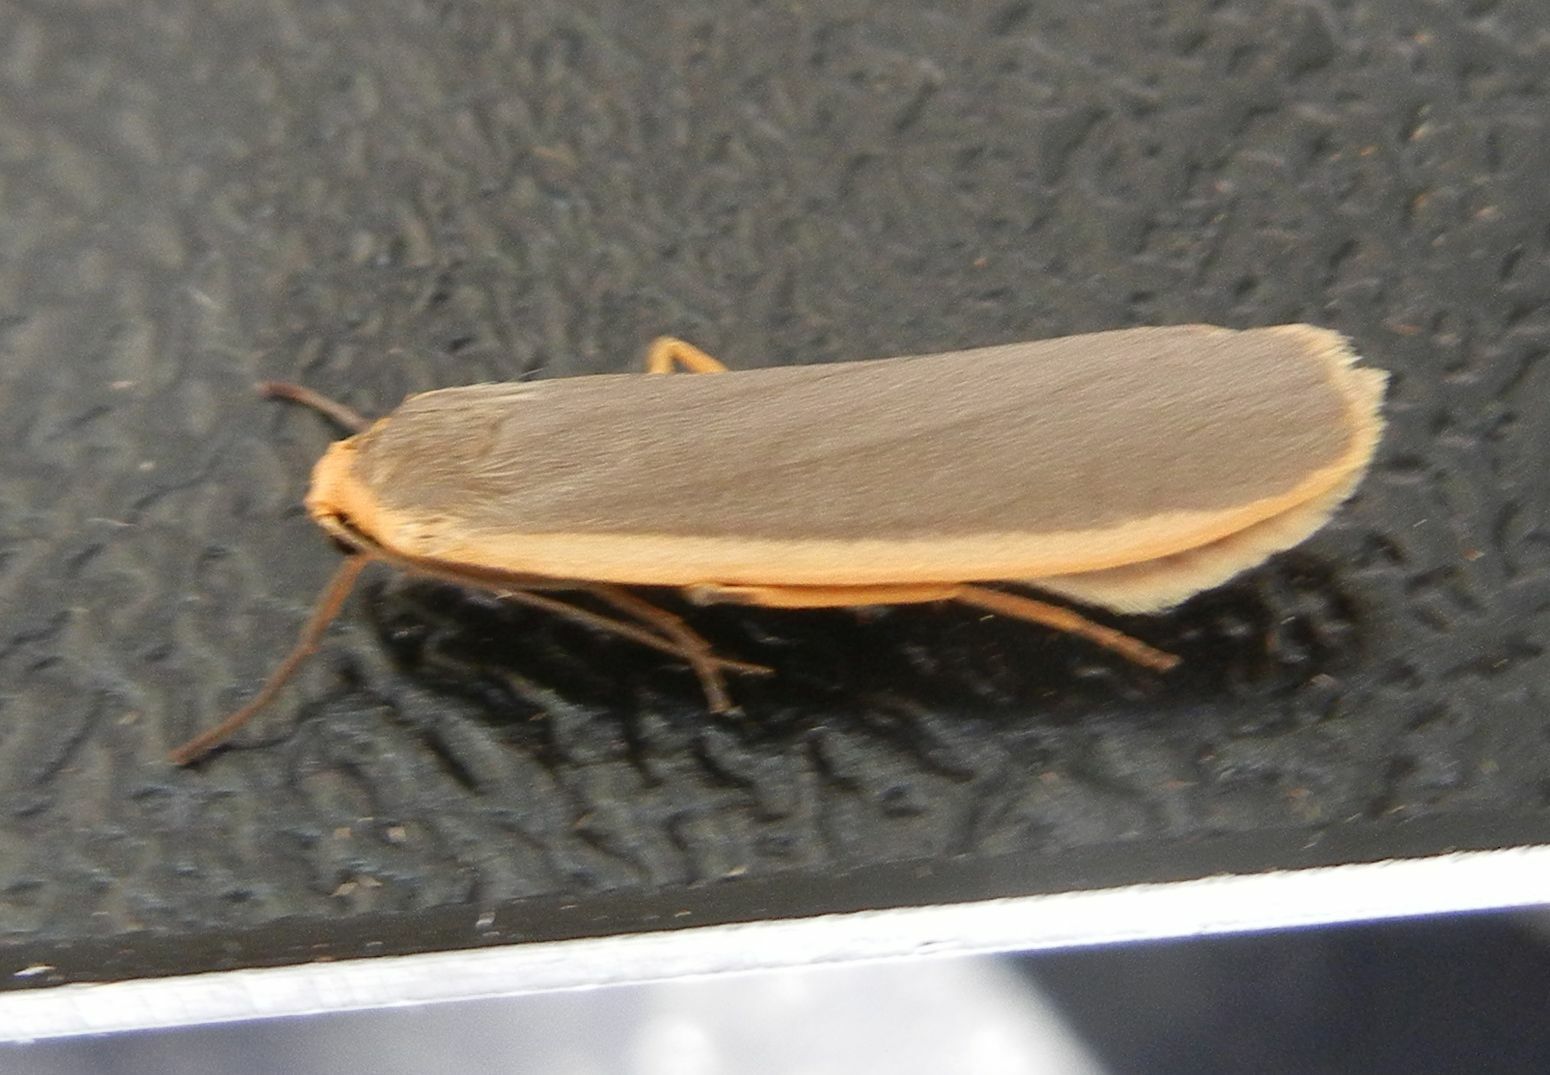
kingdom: Animalia
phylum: Arthropoda
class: Insecta
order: Lepidoptera
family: Erebidae
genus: Nyea
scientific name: Nyea lurideola
